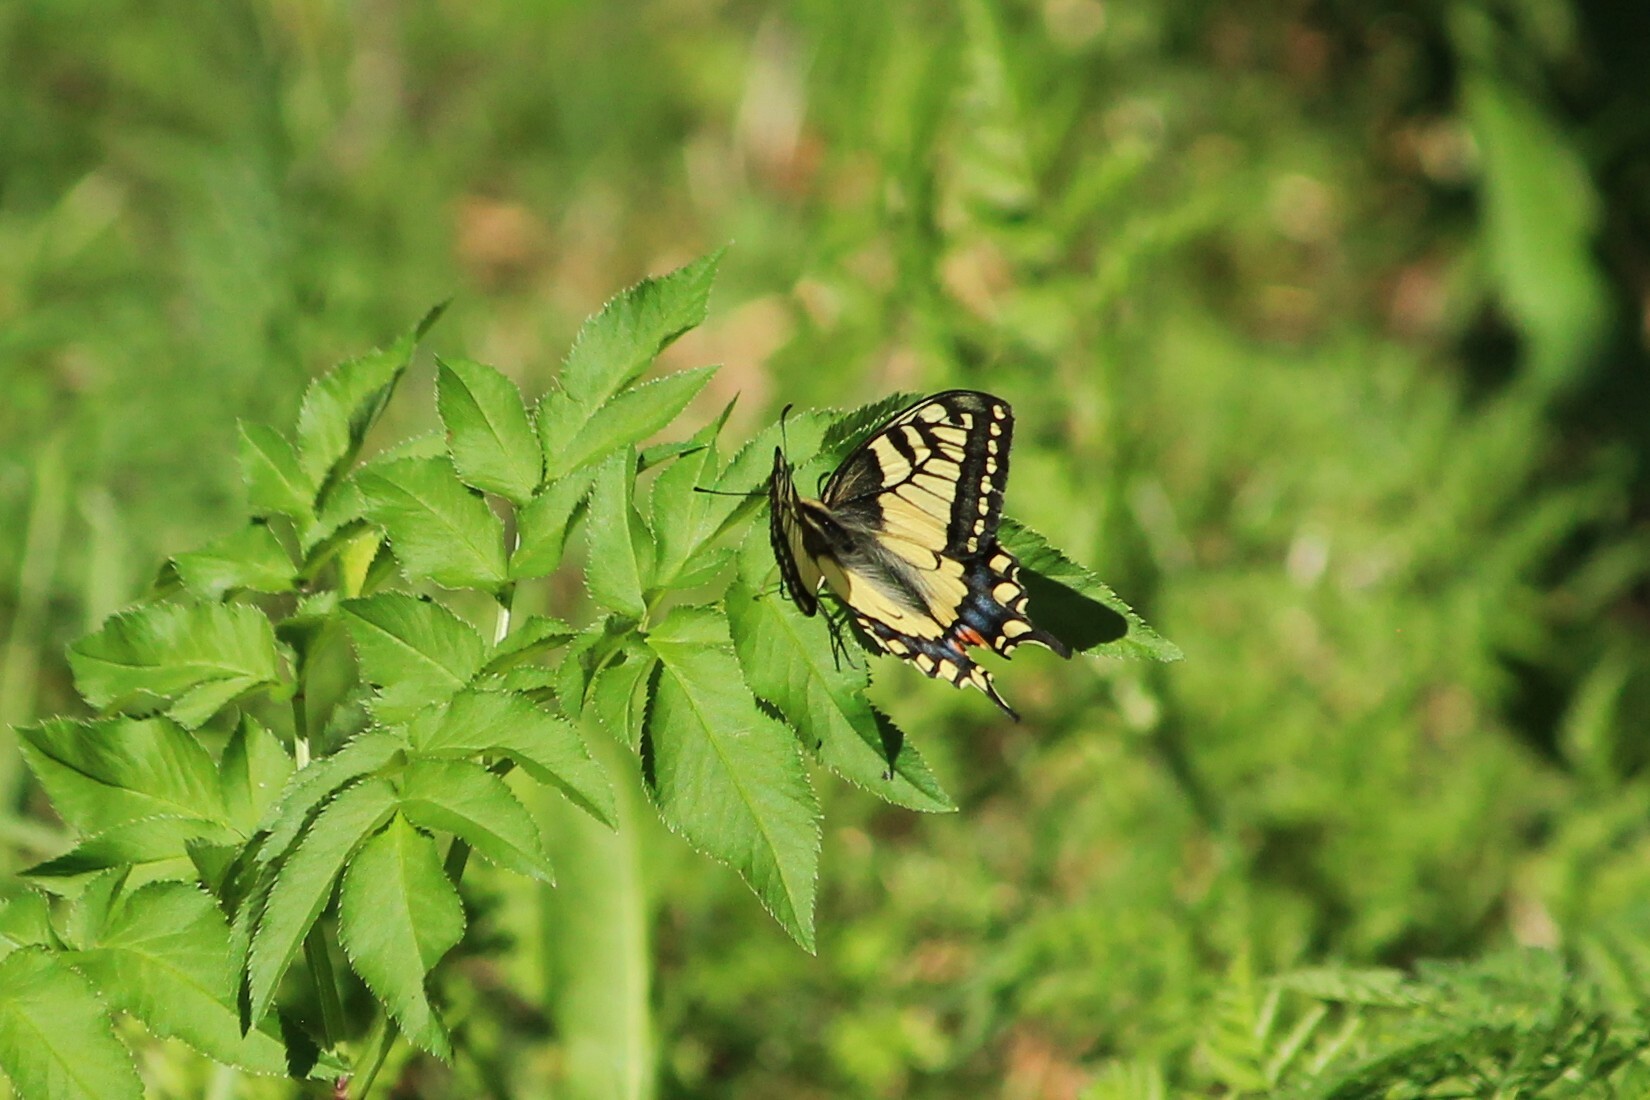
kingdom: Animalia
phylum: Arthropoda
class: Insecta
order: Lepidoptera
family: Papilionidae
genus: Papilio
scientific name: Papilio machaon
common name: Swallowtail
